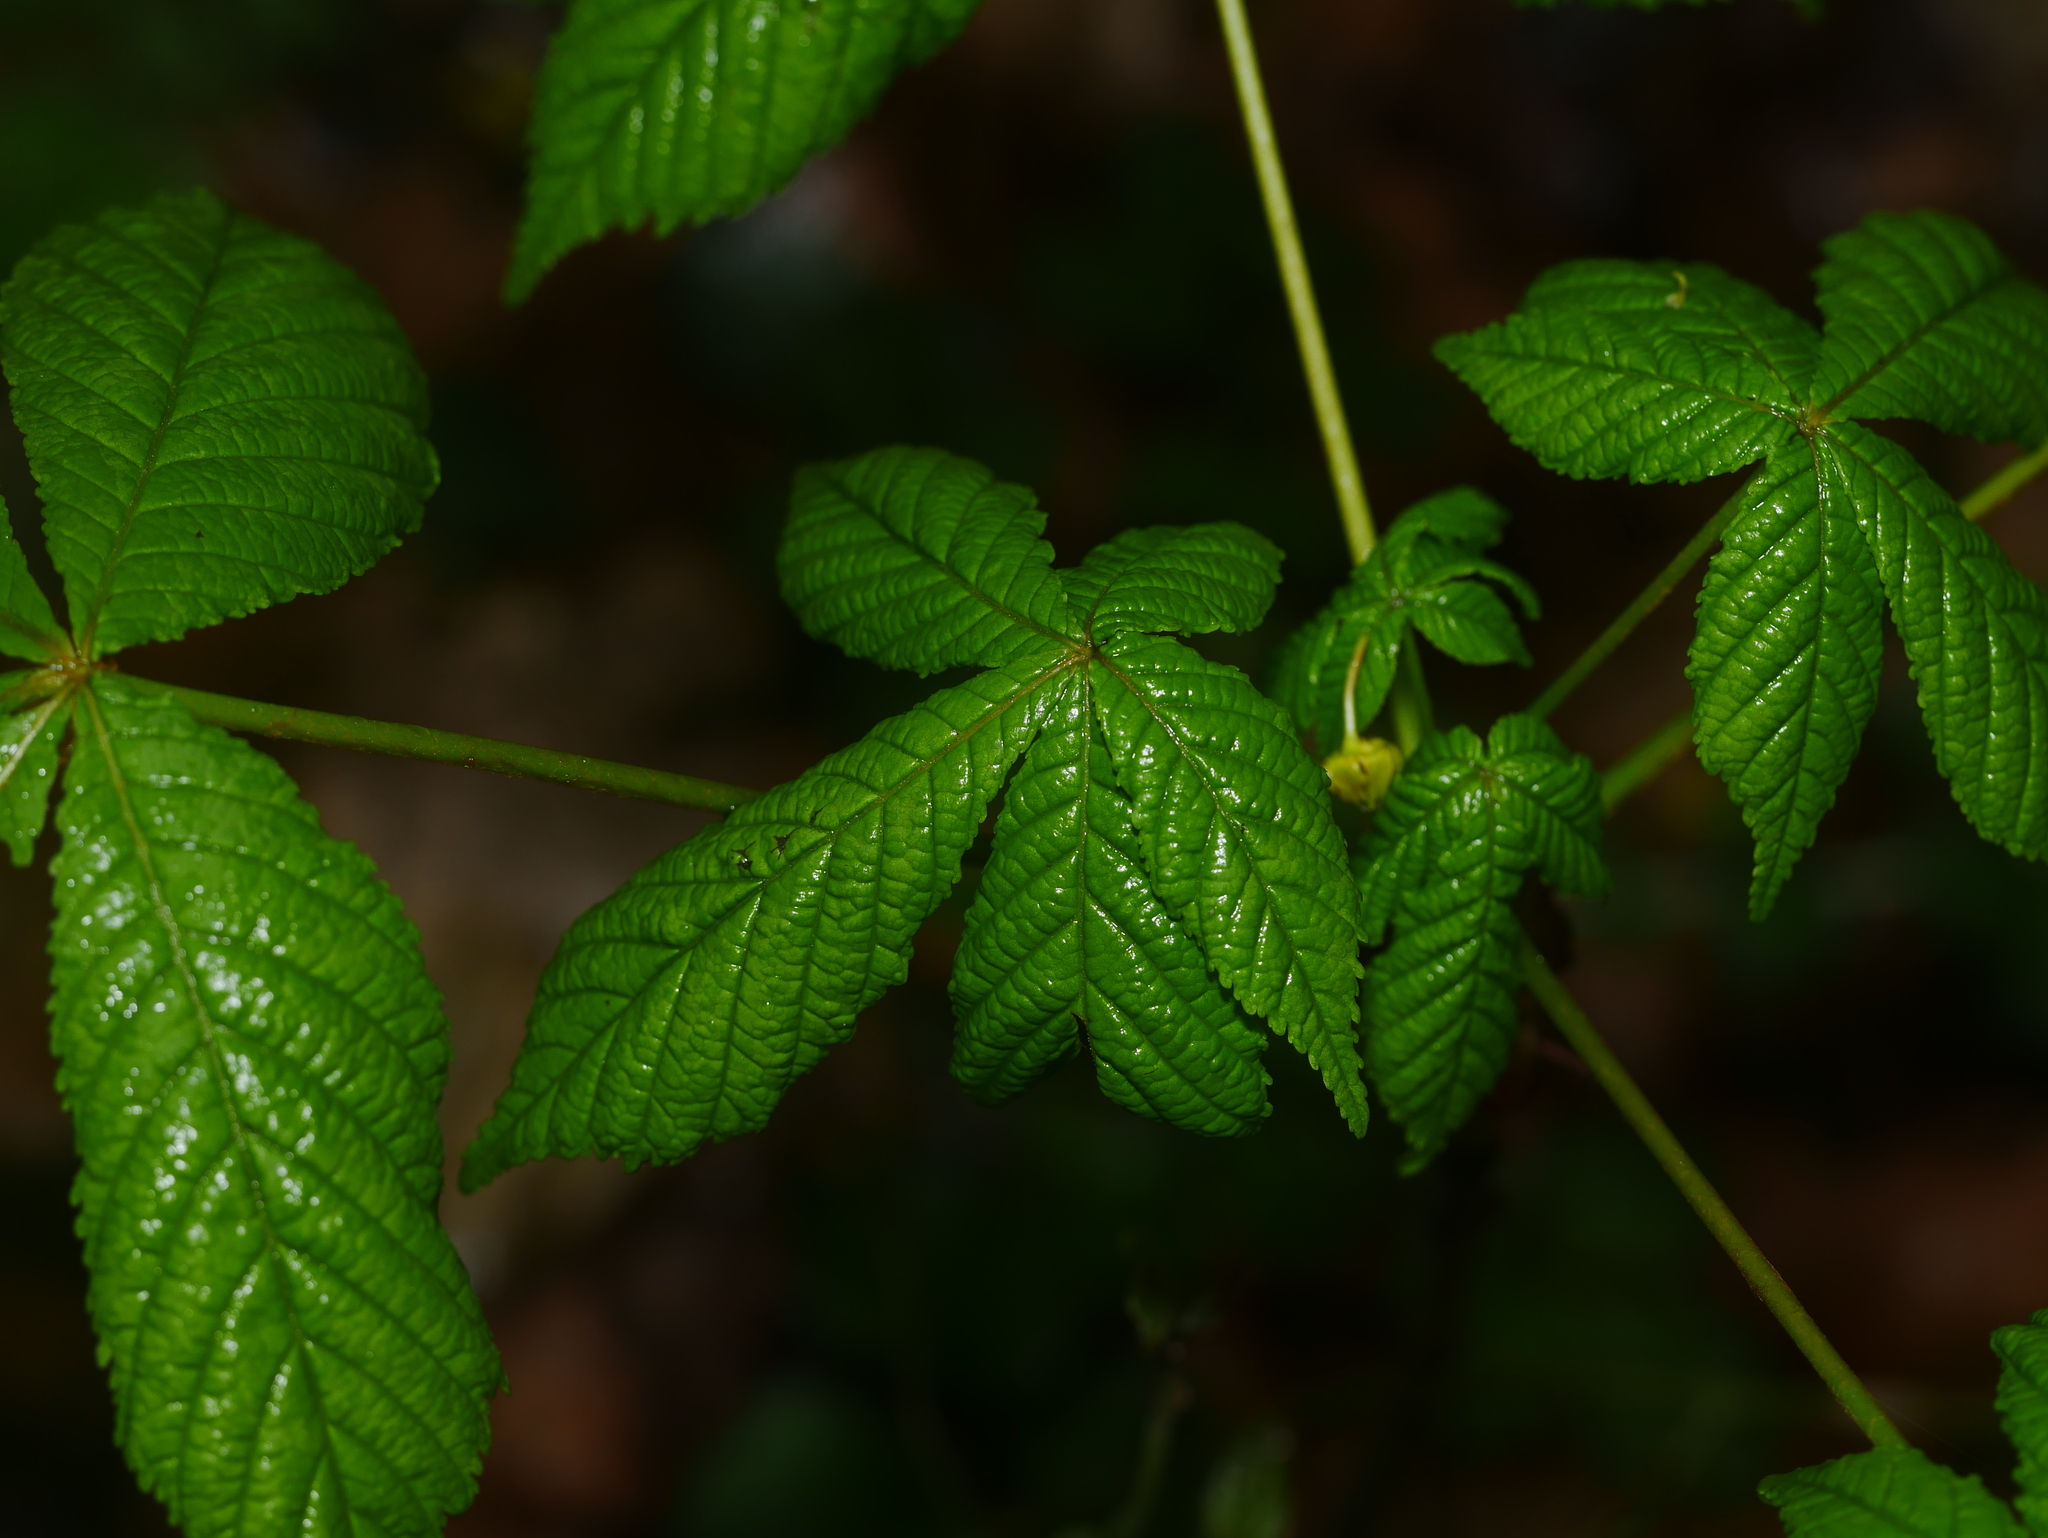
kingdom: Plantae
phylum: Tracheophyta
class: Magnoliopsida
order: Sapindales
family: Sapindaceae
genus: Aesculus
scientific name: Aesculus hippocastanum
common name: Horse-chestnut
